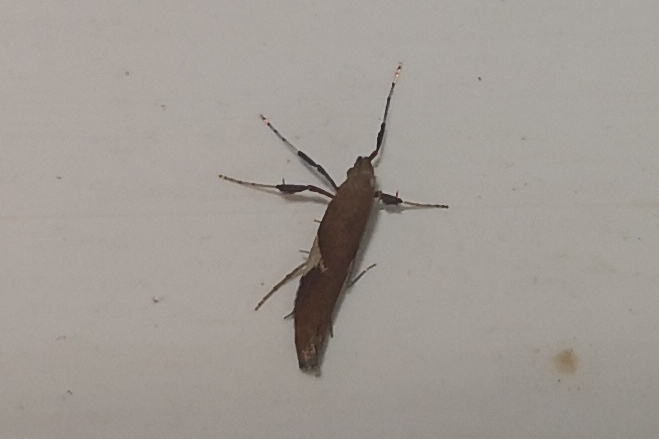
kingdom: Animalia
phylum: Arthropoda
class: Insecta
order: Lepidoptera
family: Gracillariidae
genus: Caloptilia
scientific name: Caloptilia stigmatella
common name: White-triangle slender
